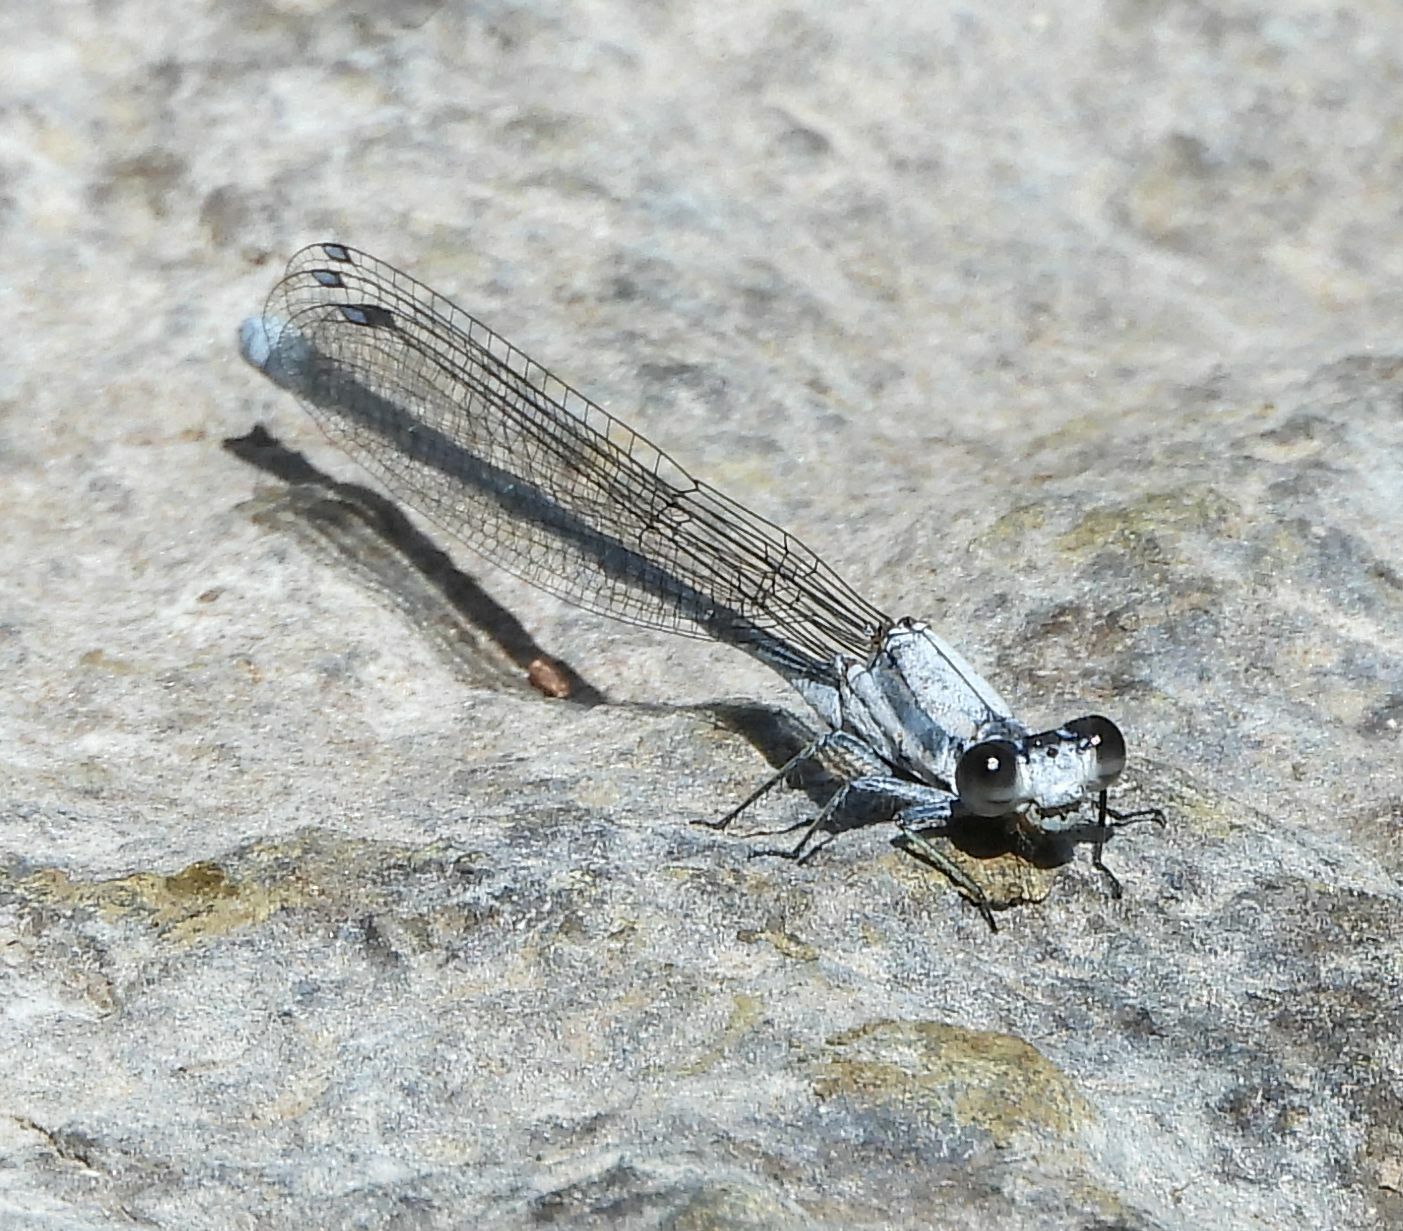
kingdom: Animalia
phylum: Arthropoda
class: Insecta
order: Odonata
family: Coenagrionidae
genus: Argia
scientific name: Argia moesta
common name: Powdered dancer
